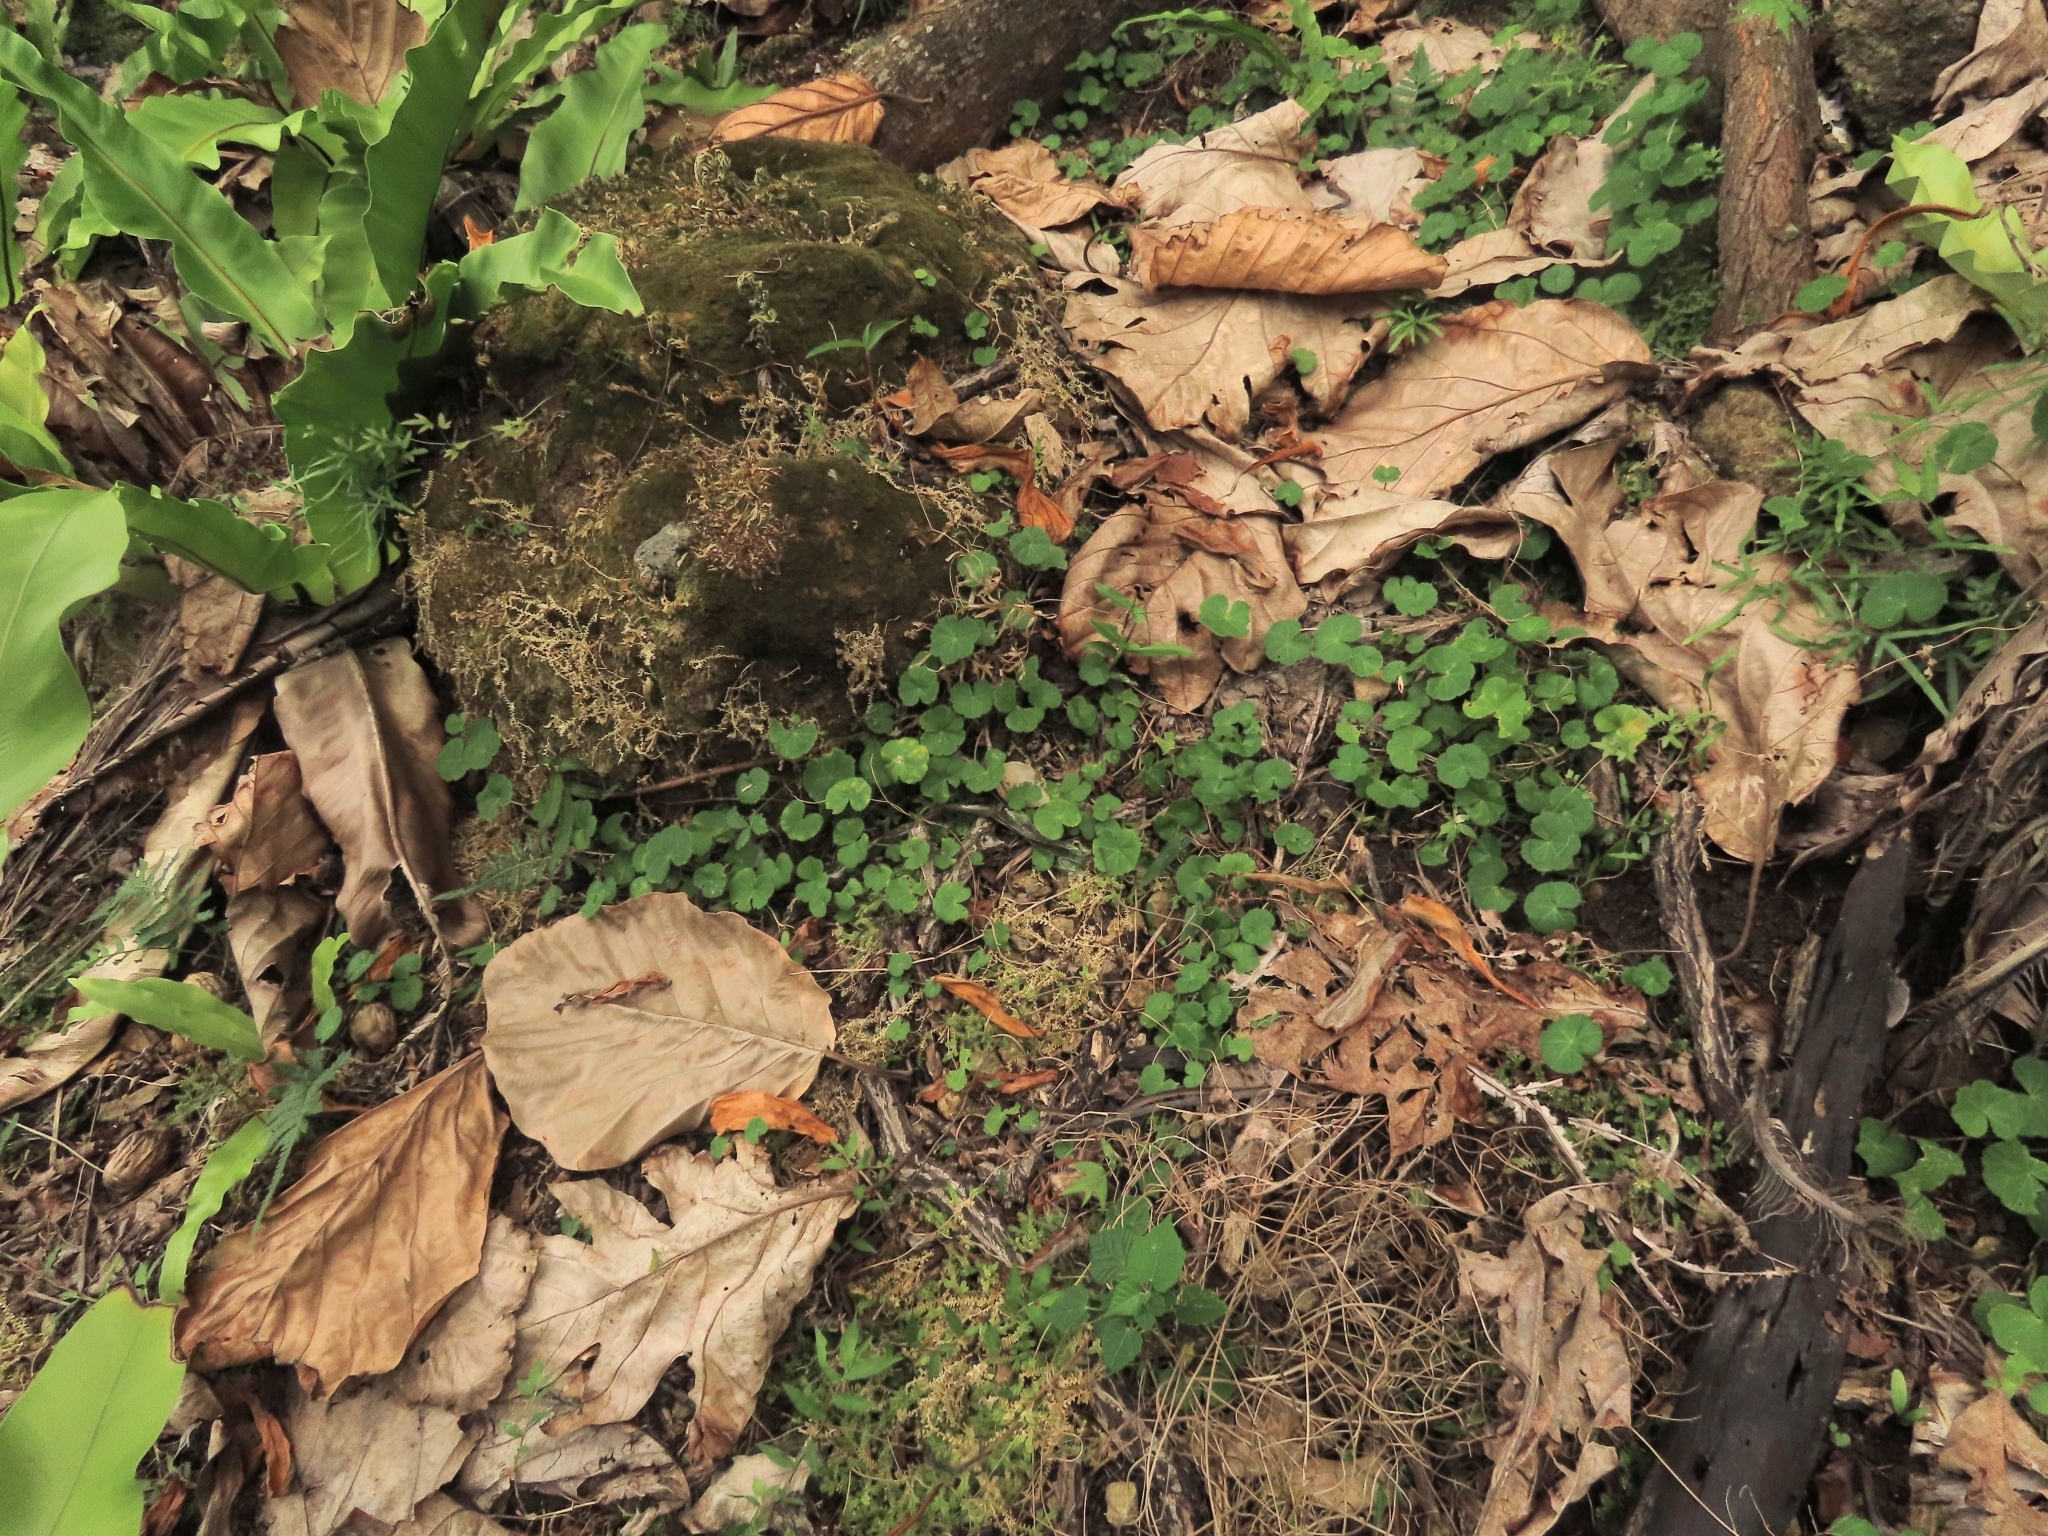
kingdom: Plantae
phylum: Tracheophyta
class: Magnoliopsida
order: Apiales
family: Araliaceae
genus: Hydrocotyle
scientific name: Hydrocotyle nepalensis
